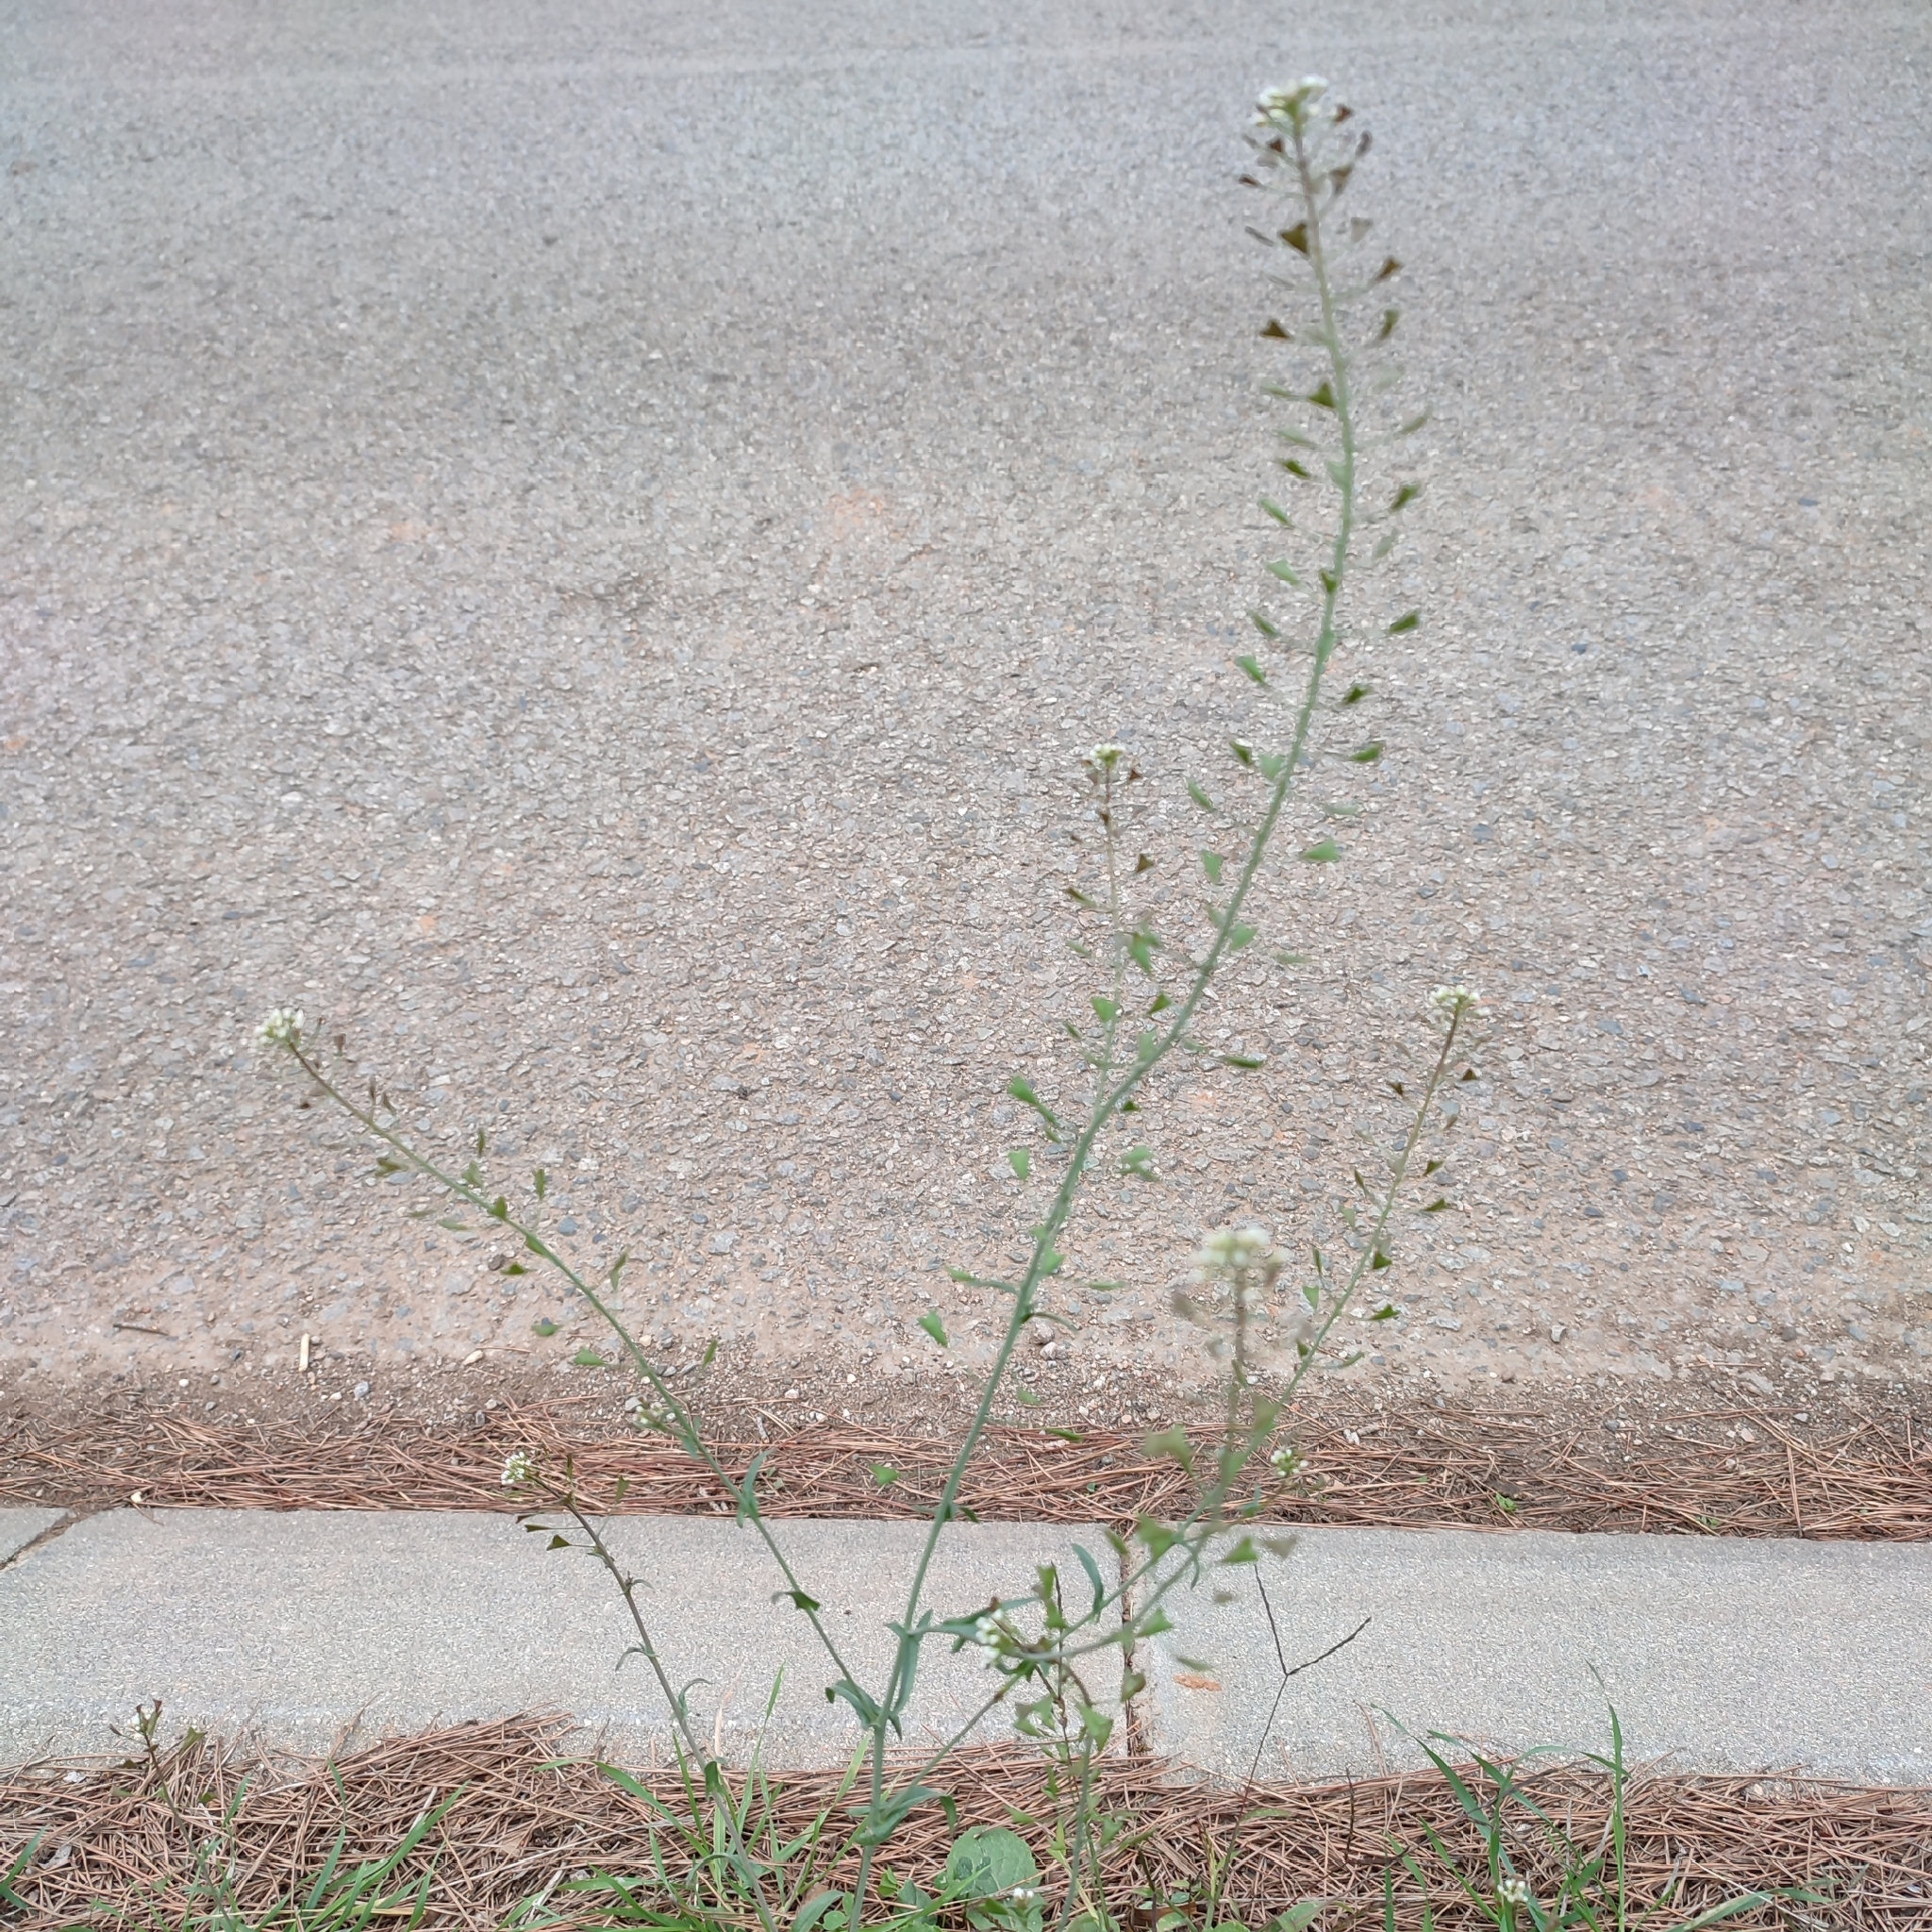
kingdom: Plantae
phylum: Tracheophyta
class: Magnoliopsida
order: Brassicales
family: Brassicaceae
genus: Capsella
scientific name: Capsella bursa-pastoris
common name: Shepherd's purse
